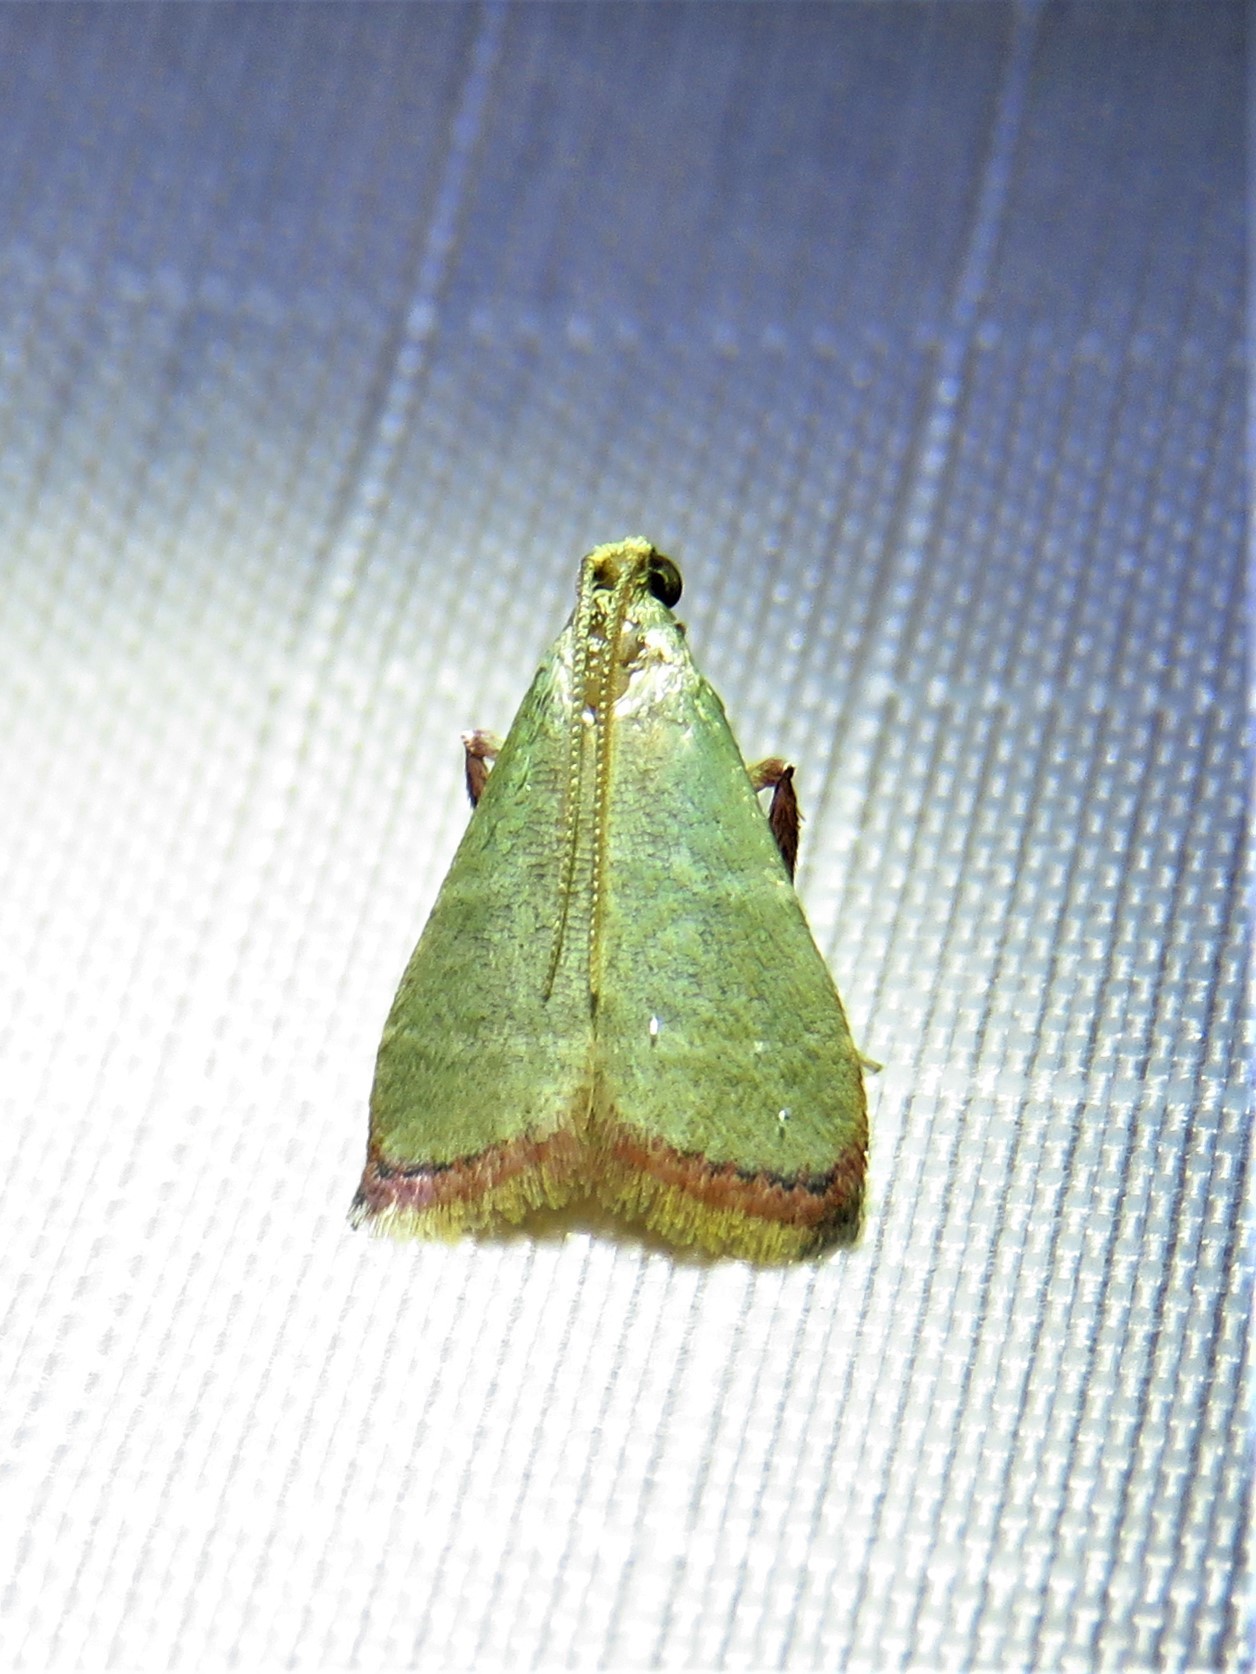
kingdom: Animalia
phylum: Arthropoda
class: Insecta
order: Lepidoptera
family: Pyralidae
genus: Arta
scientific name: Arta olivalis
